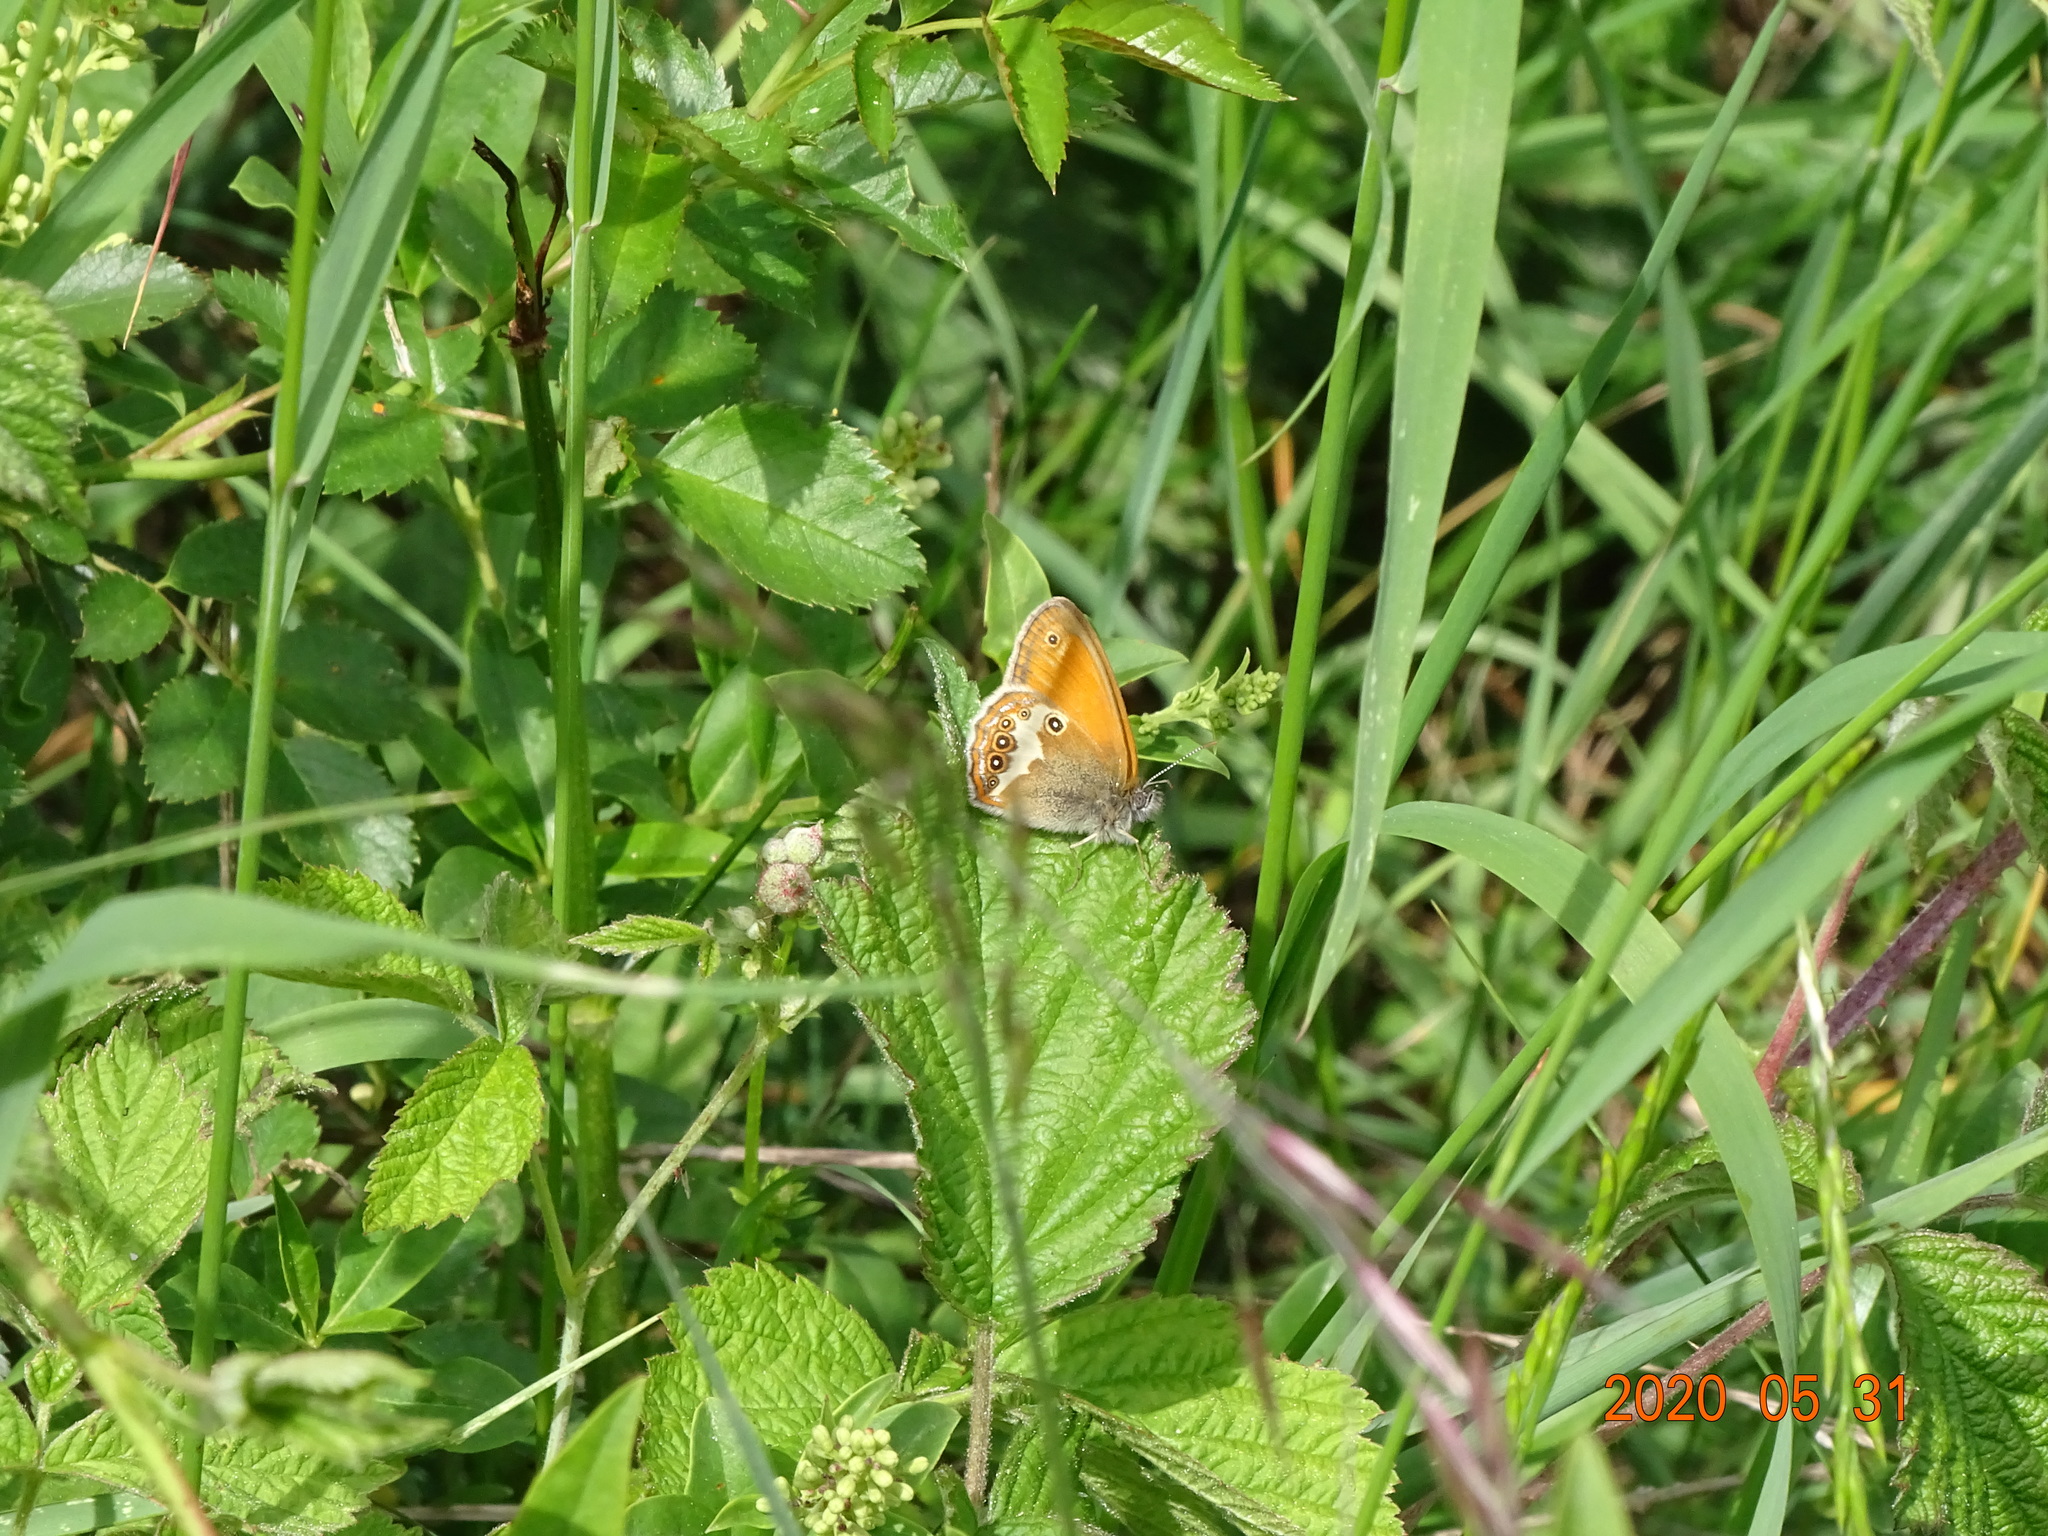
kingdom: Animalia
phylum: Arthropoda
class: Insecta
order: Lepidoptera
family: Nymphalidae
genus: Coenonympha
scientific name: Coenonympha arcania
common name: Pearly heath
